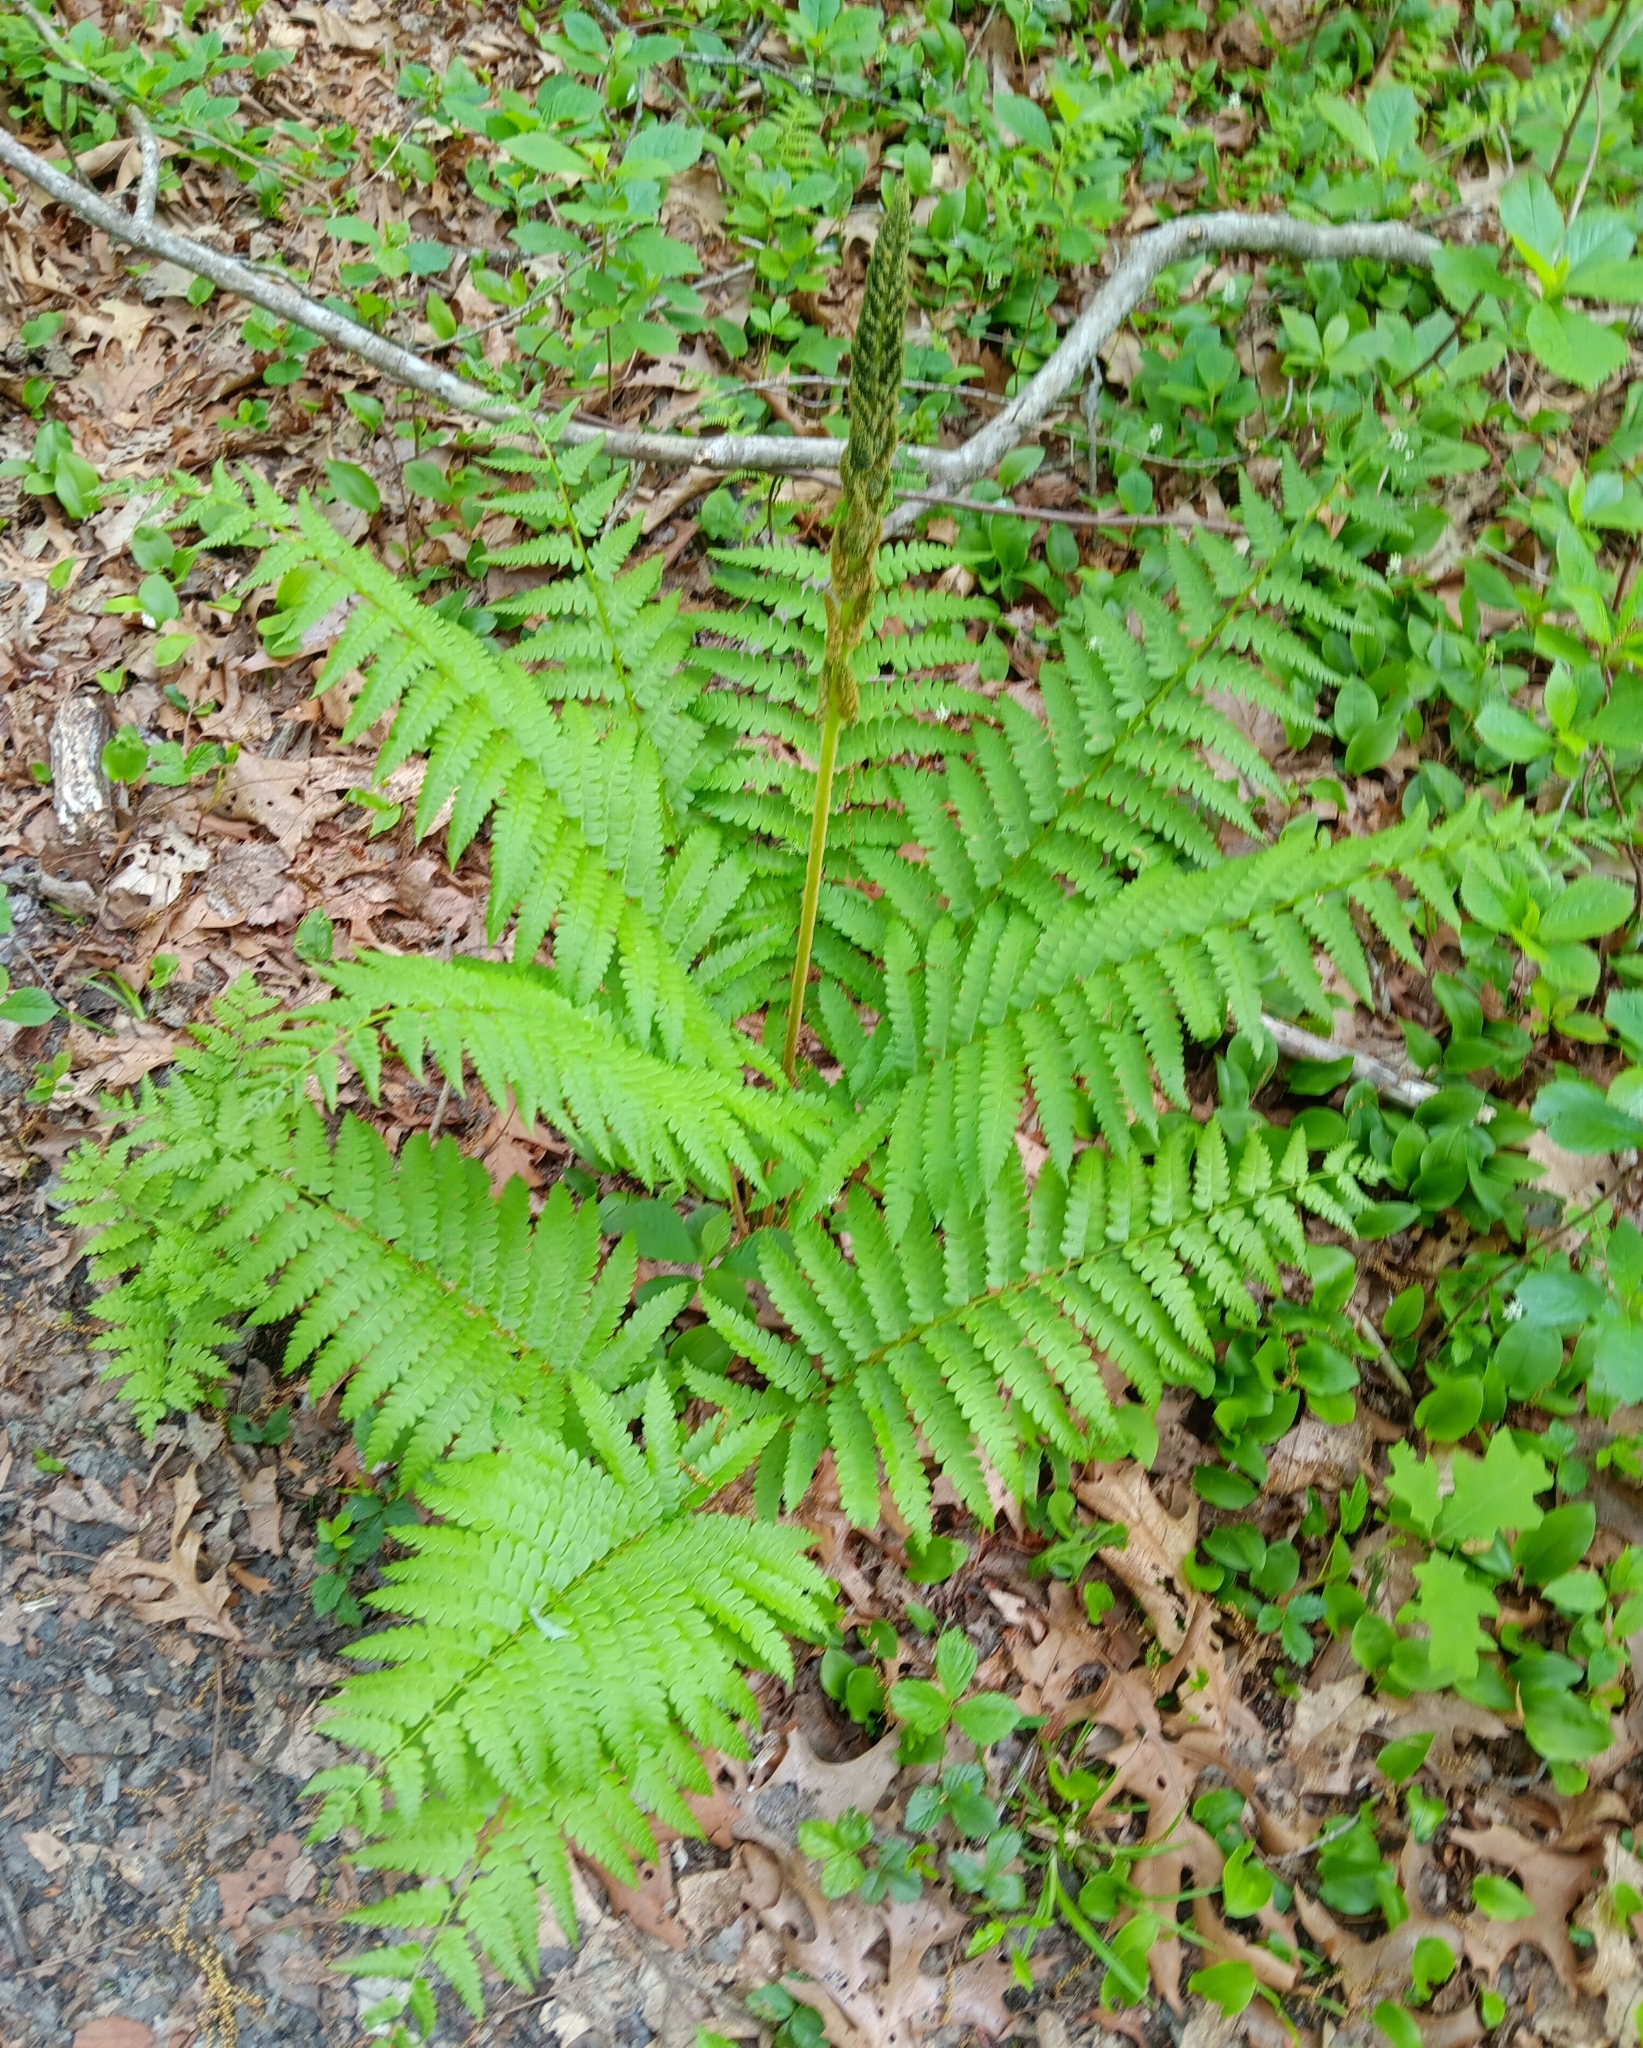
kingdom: Plantae
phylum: Tracheophyta
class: Polypodiopsida
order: Osmundales
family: Osmundaceae
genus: Osmundastrum
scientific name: Osmundastrum cinnamomeum
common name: Cinnamon fern
